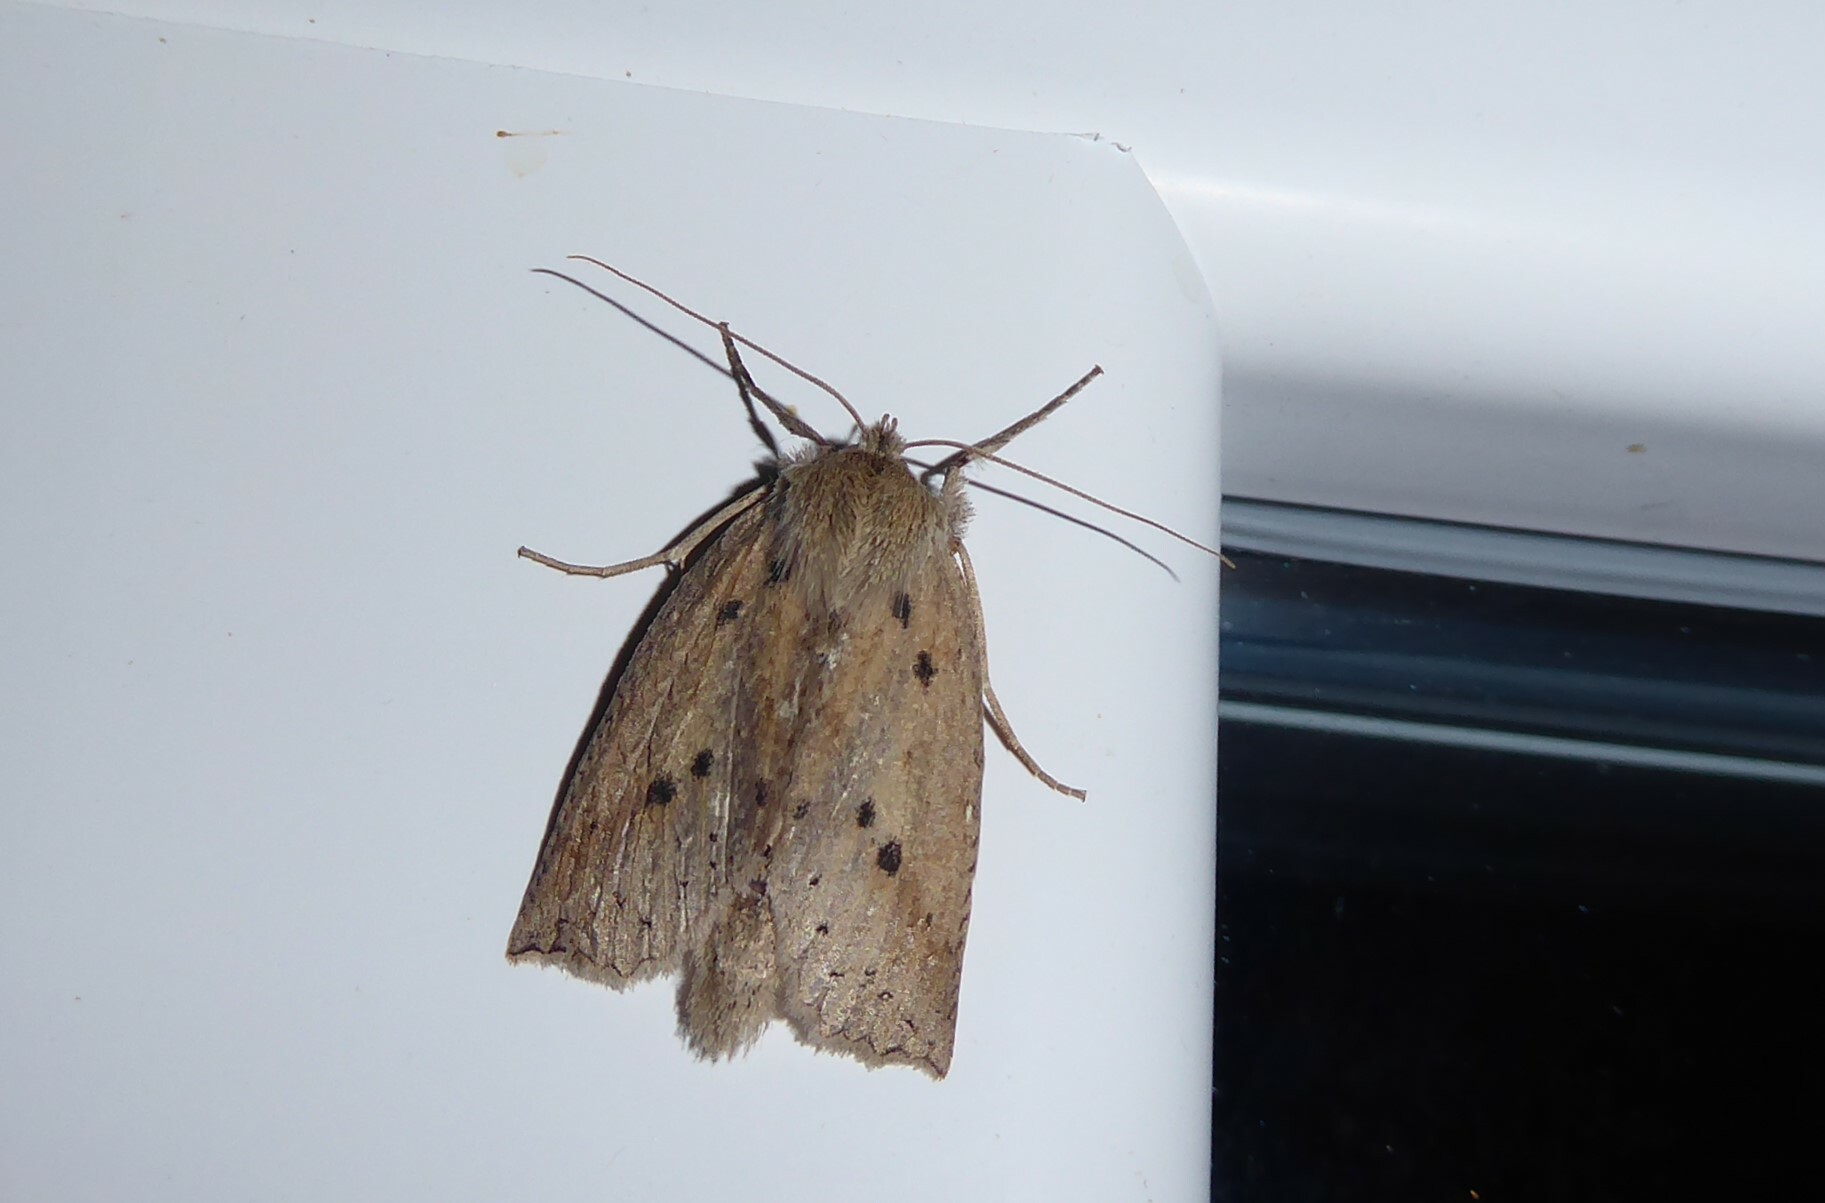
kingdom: Animalia
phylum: Arthropoda
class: Insecta
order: Lepidoptera
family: Geometridae
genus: Declana
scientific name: Declana leptomera
